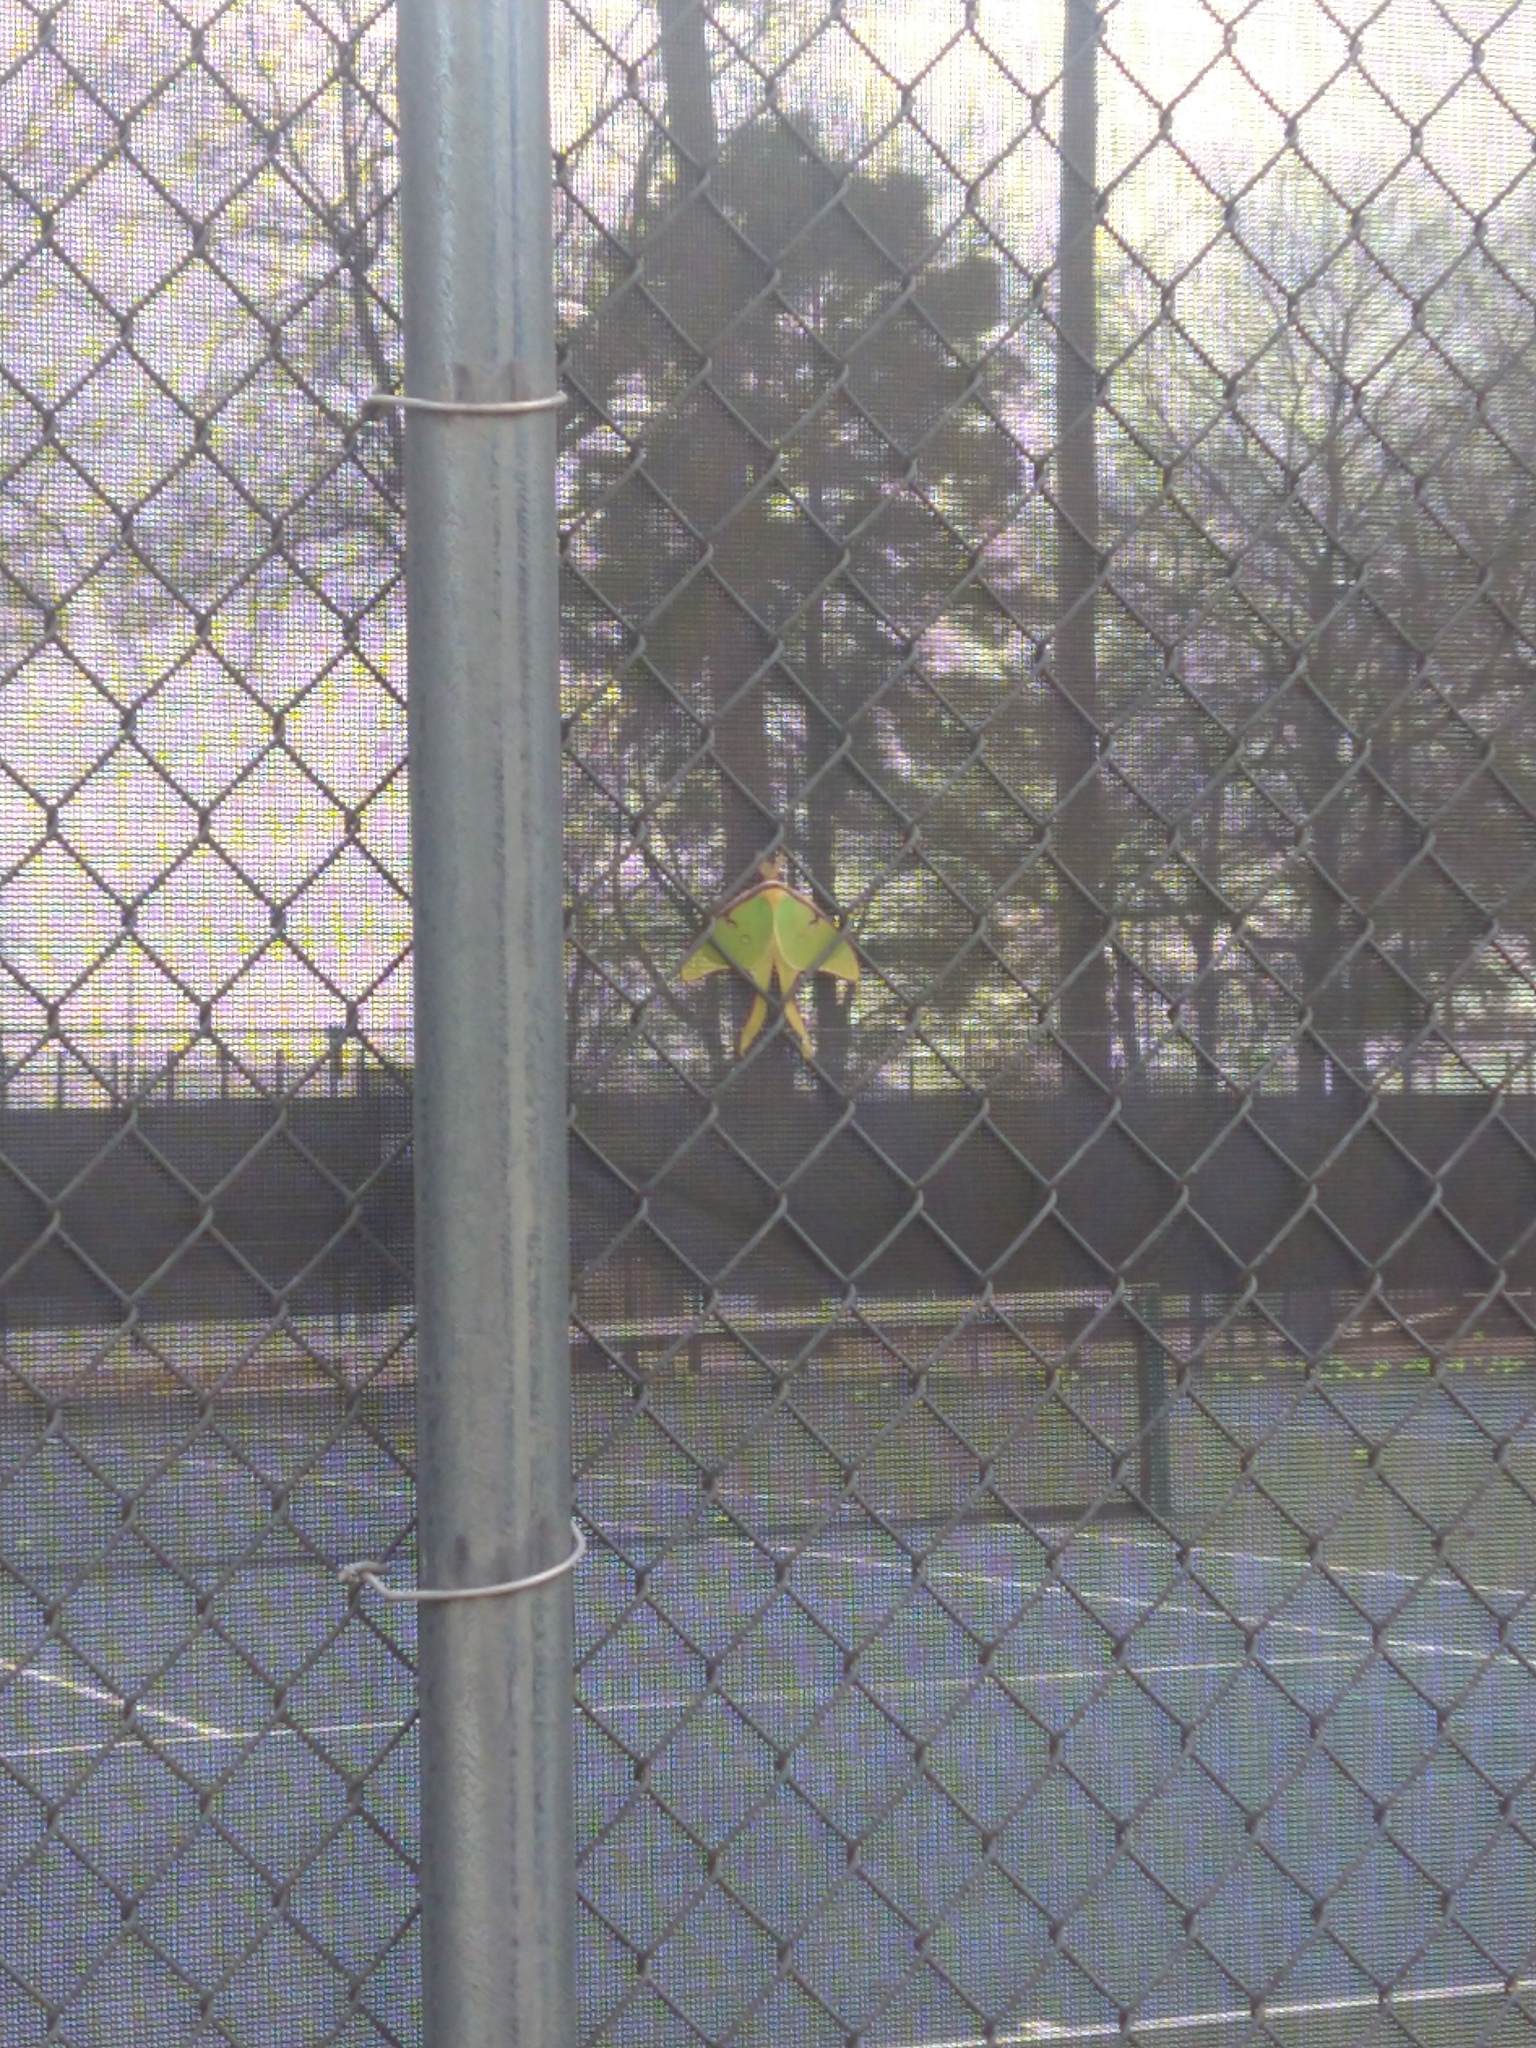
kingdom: Animalia
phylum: Arthropoda
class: Insecta
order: Lepidoptera
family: Saturniidae
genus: Actias
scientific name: Actias luna
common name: Luna moth
